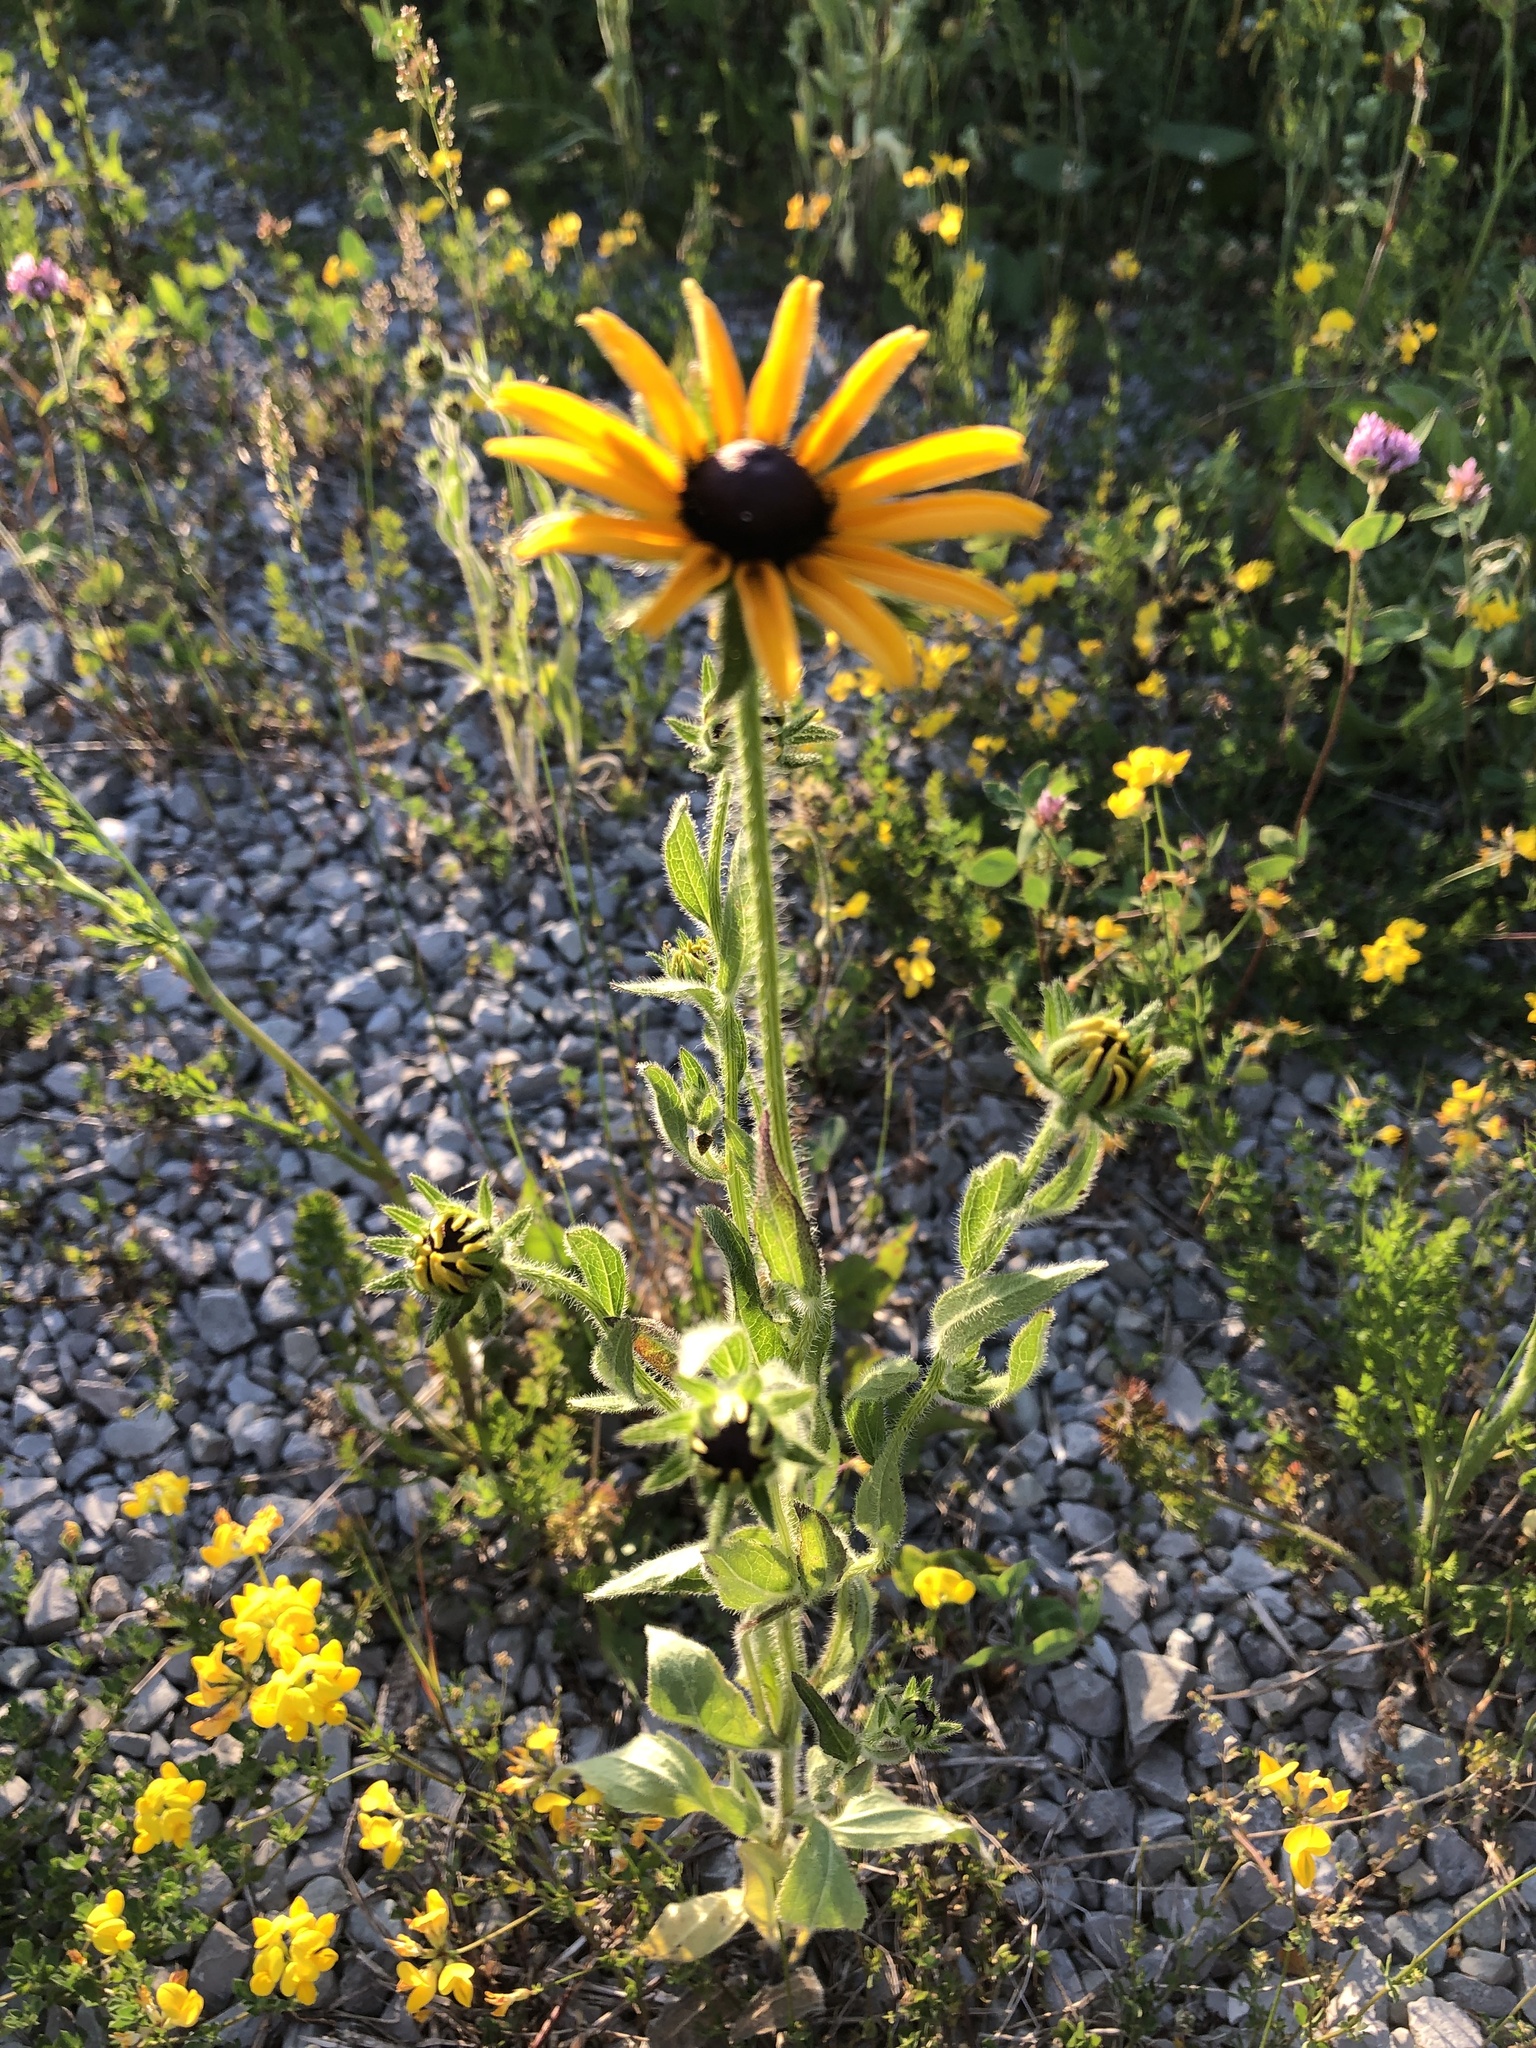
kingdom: Plantae
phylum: Tracheophyta
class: Magnoliopsida
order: Asterales
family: Asteraceae
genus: Rudbeckia
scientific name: Rudbeckia hirta
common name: Black-eyed-susan
